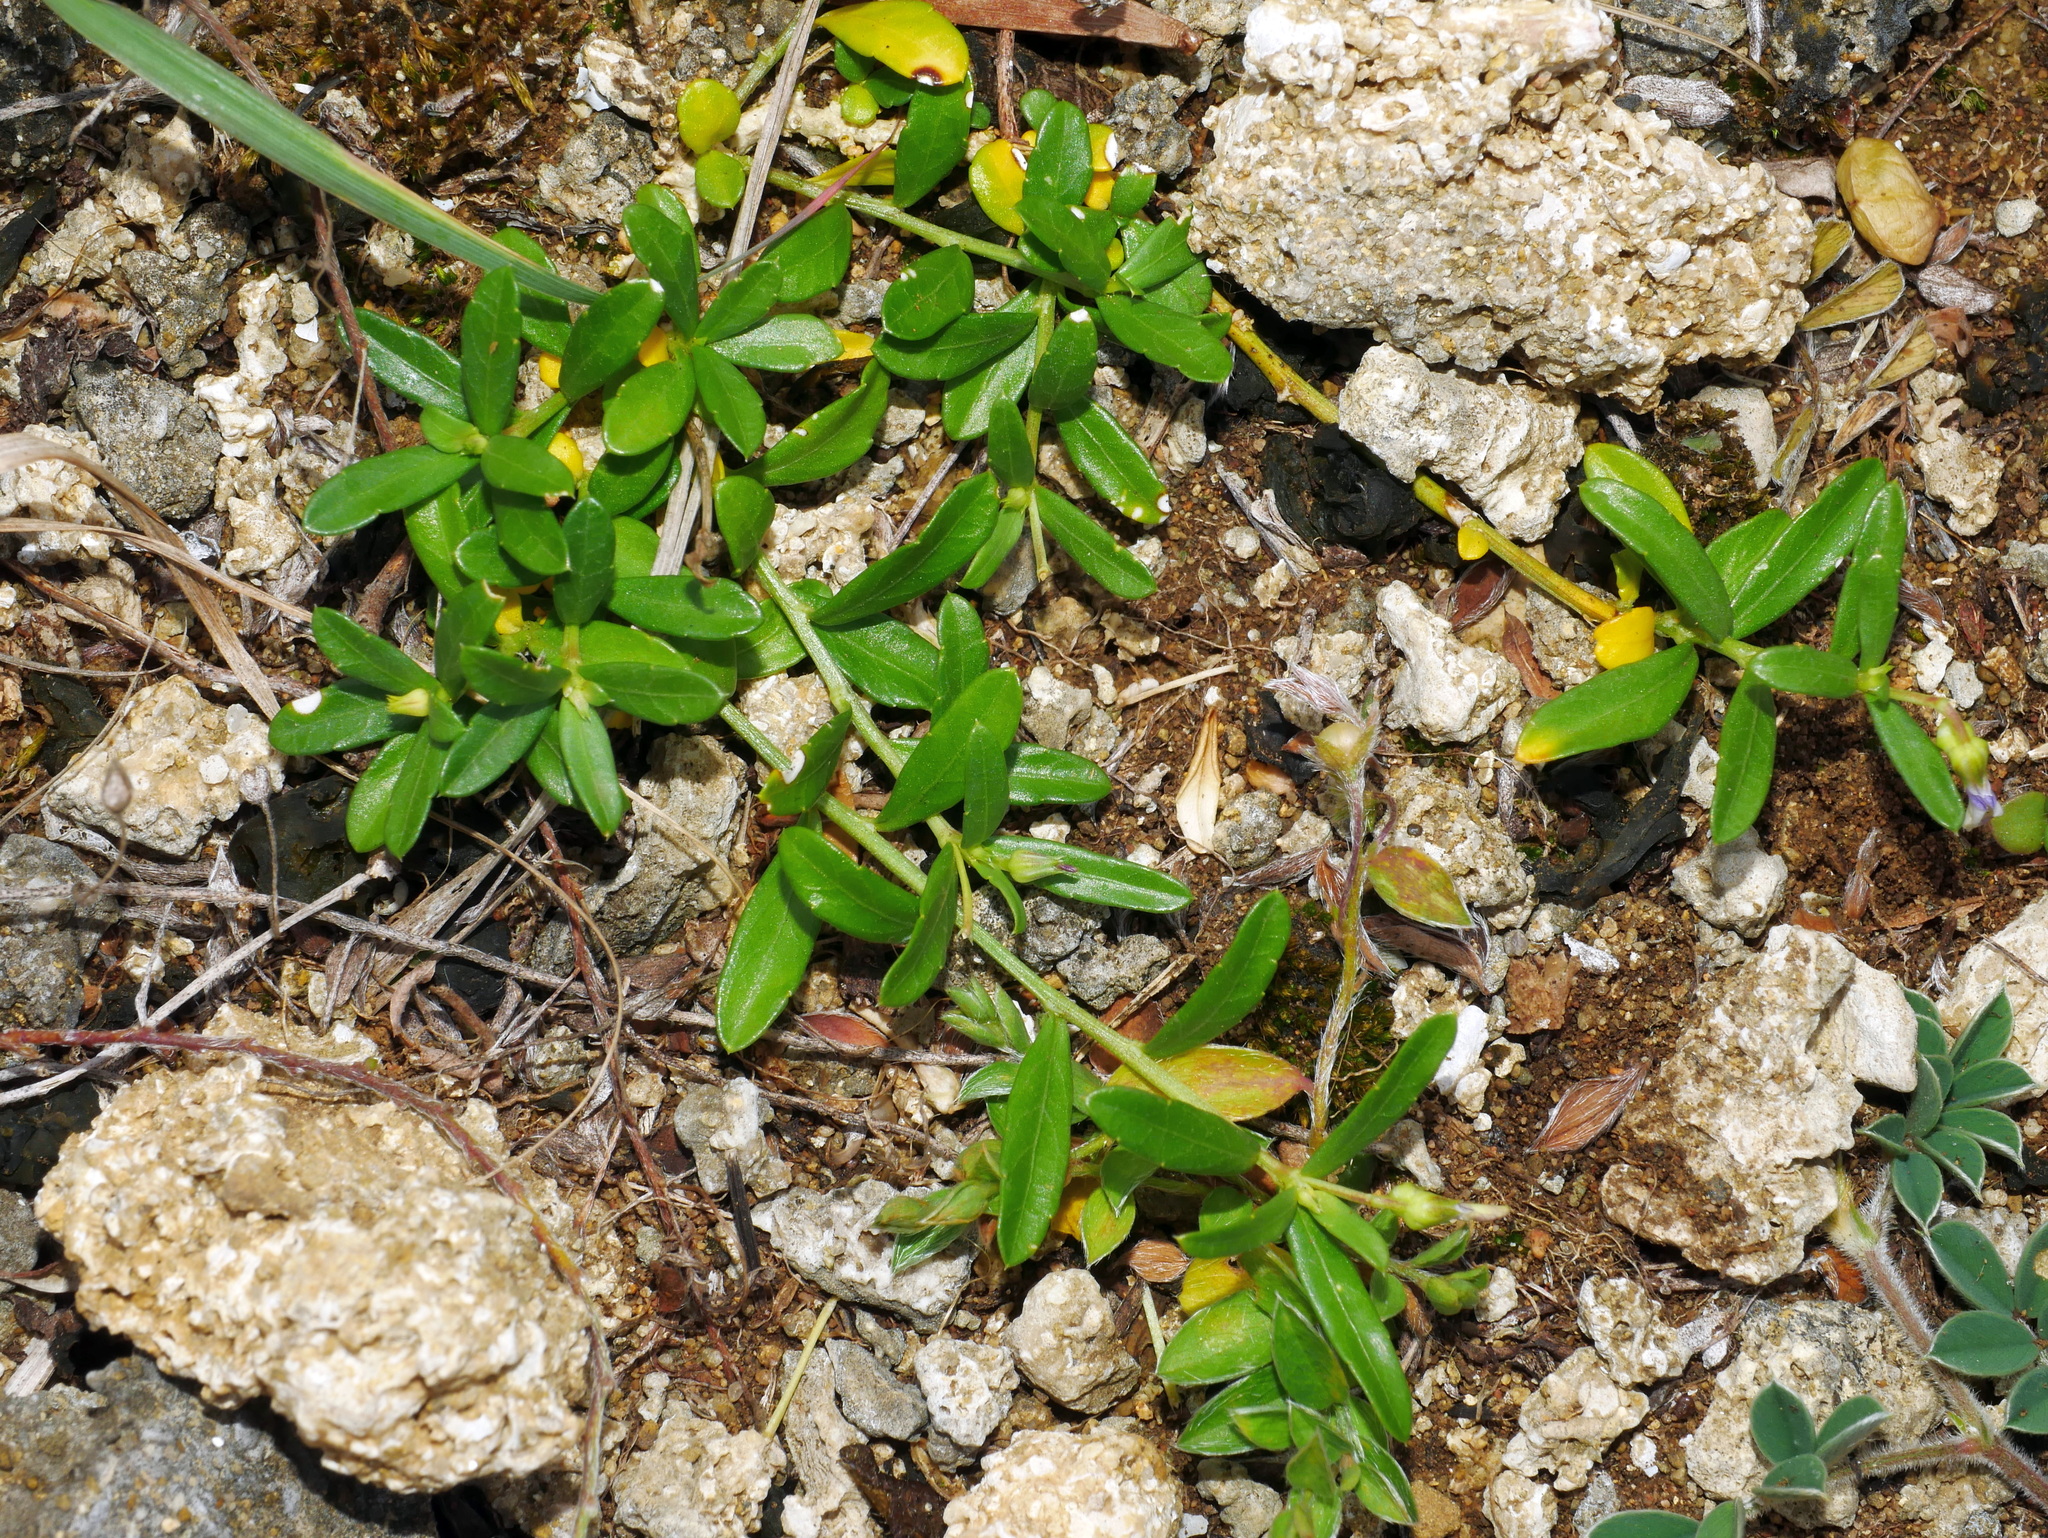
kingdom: Plantae
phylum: Tracheophyta
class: Magnoliopsida
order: Malpighiales
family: Violaceae
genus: Pigea
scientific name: Pigea enneasperma
